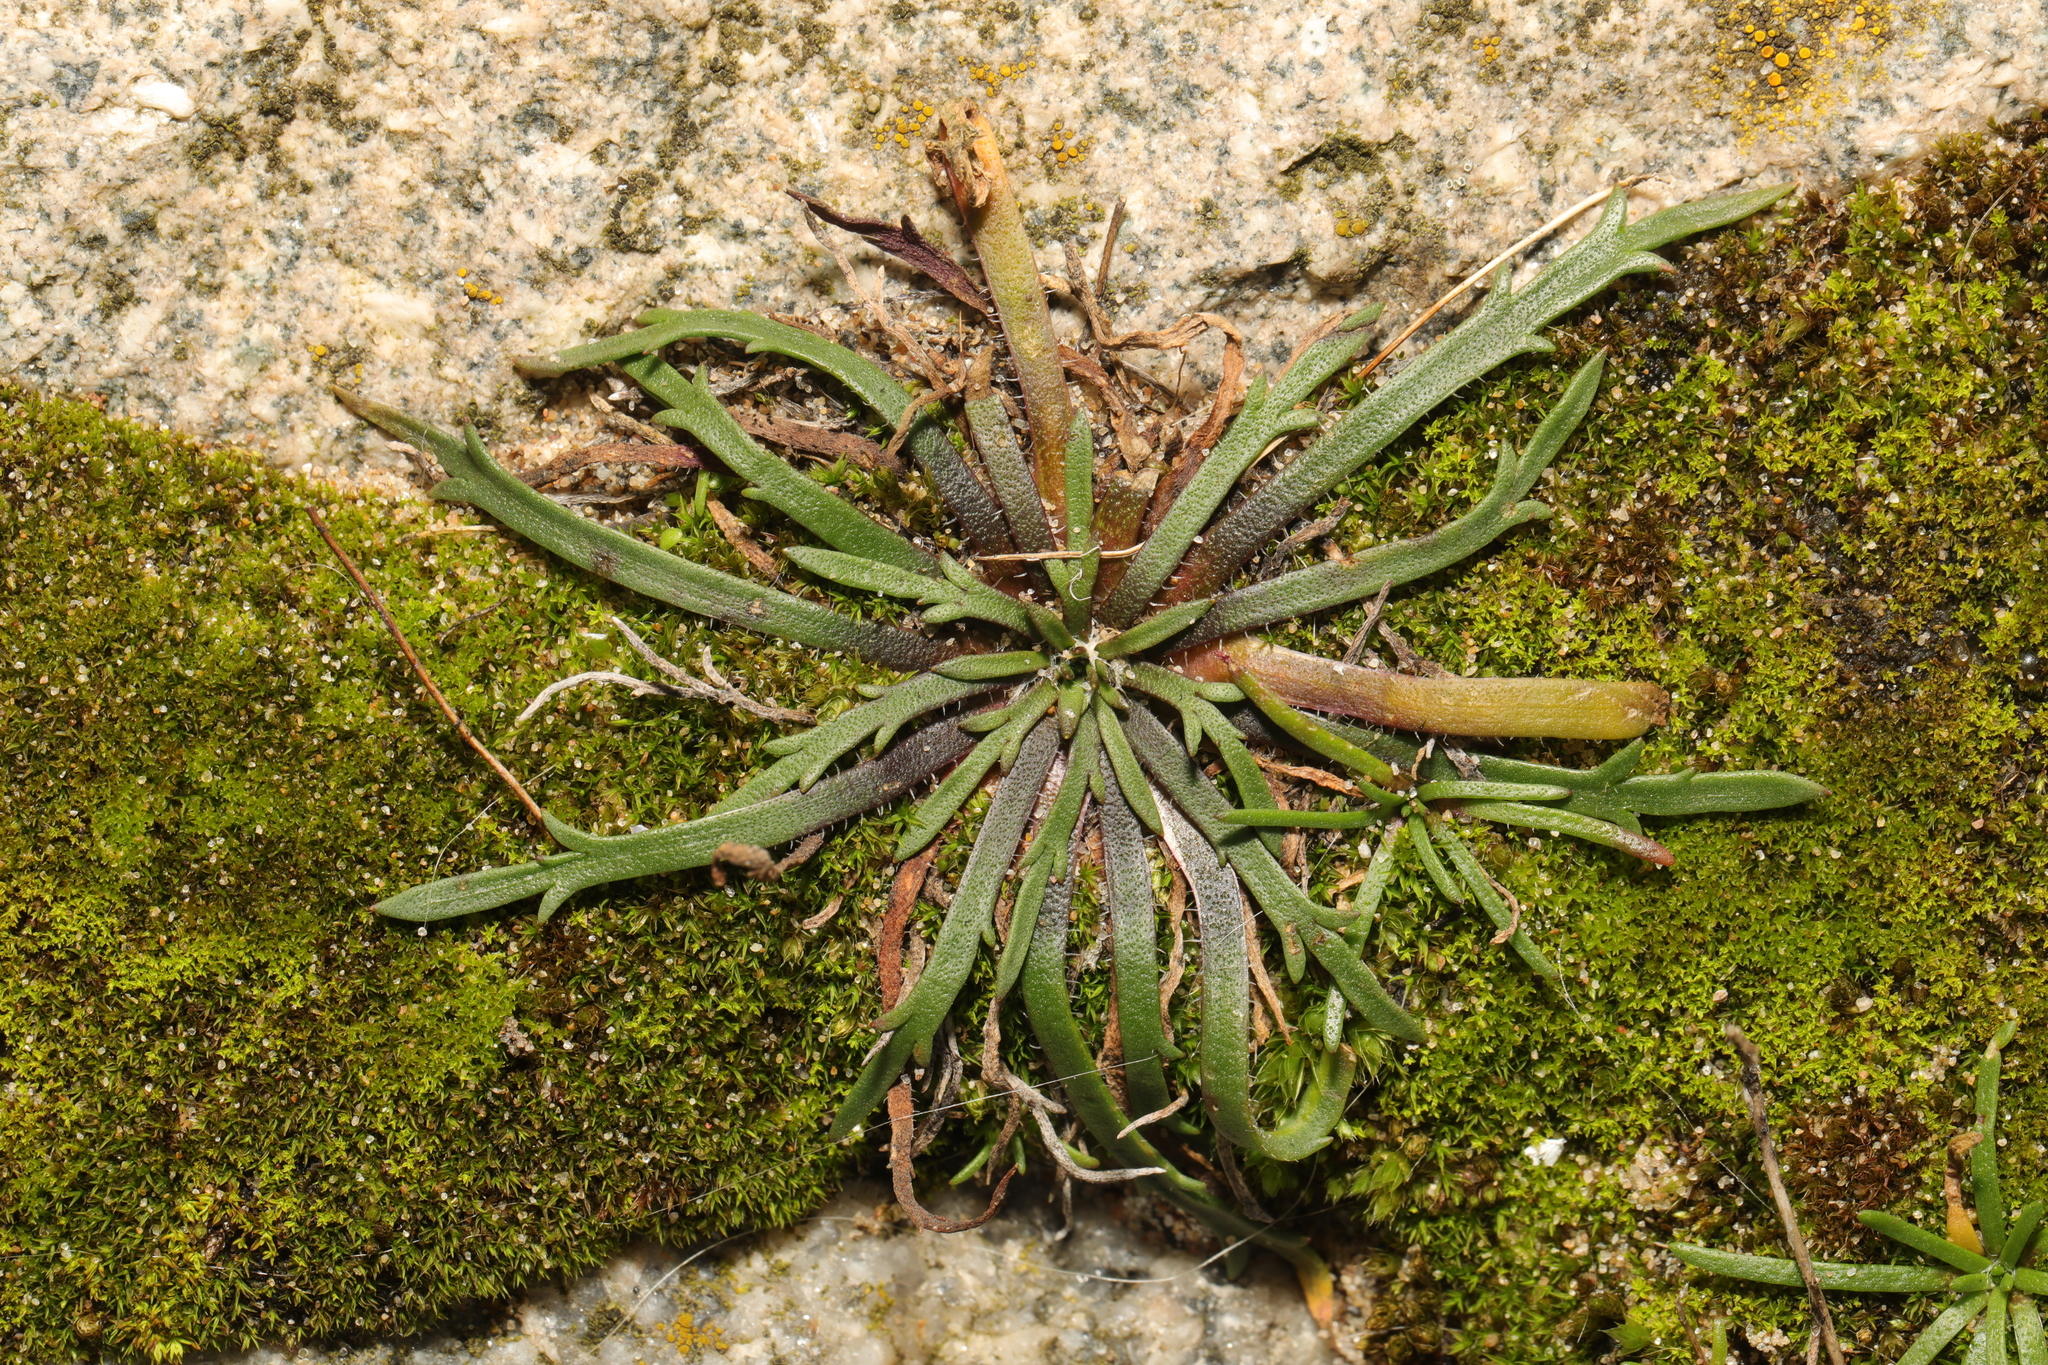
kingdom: Plantae
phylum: Tracheophyta
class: Magnoliopsida
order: Lamiales
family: Plantaginaceae
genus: Plantago
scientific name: Plantago coronopus
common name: Buck's-horn plantain
